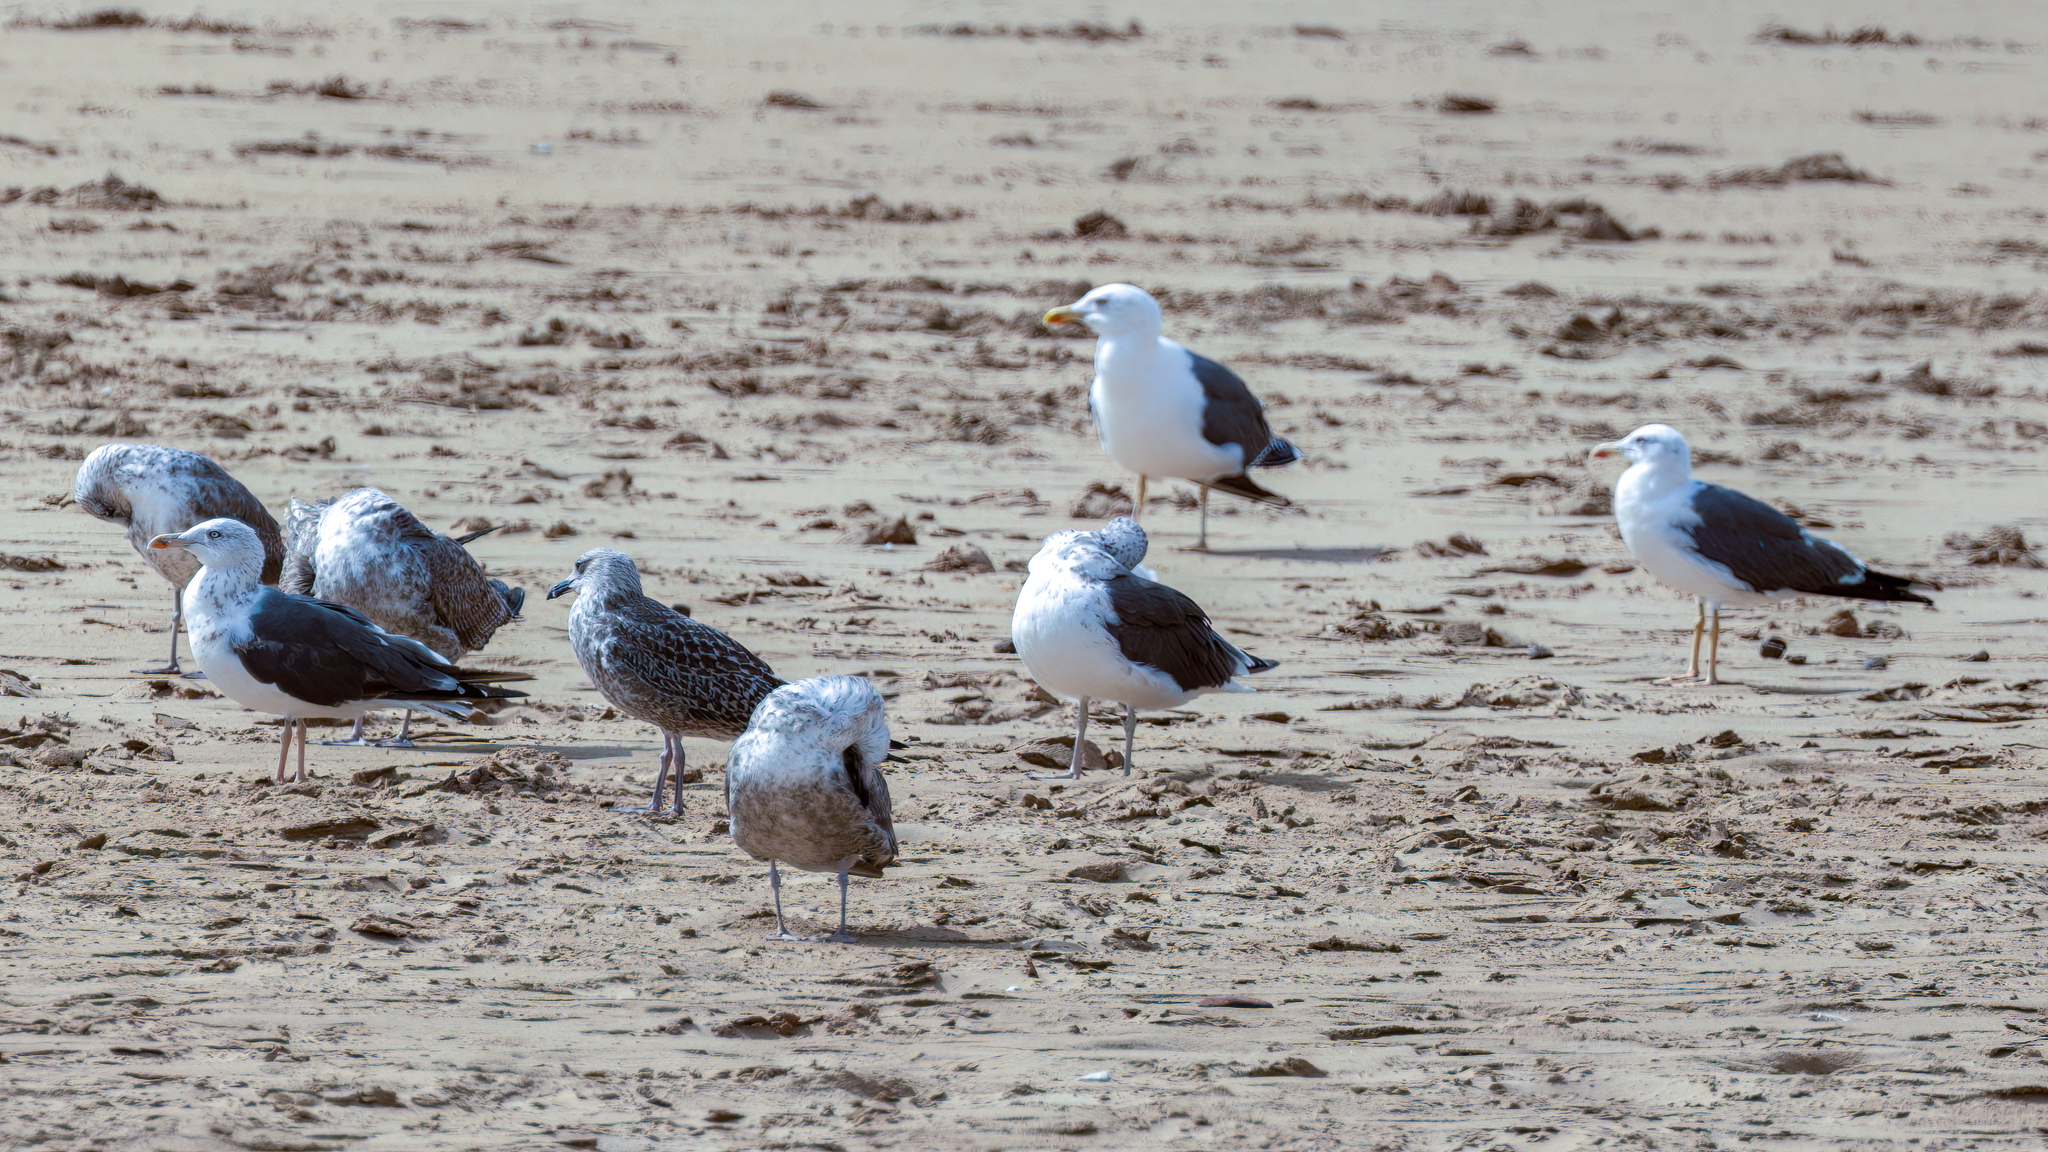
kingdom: Animalia
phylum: Chordata
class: Aves
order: Charadriiformes
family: Laridae
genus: Larus
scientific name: Larus fuscus
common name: Lesser black-backed gull
